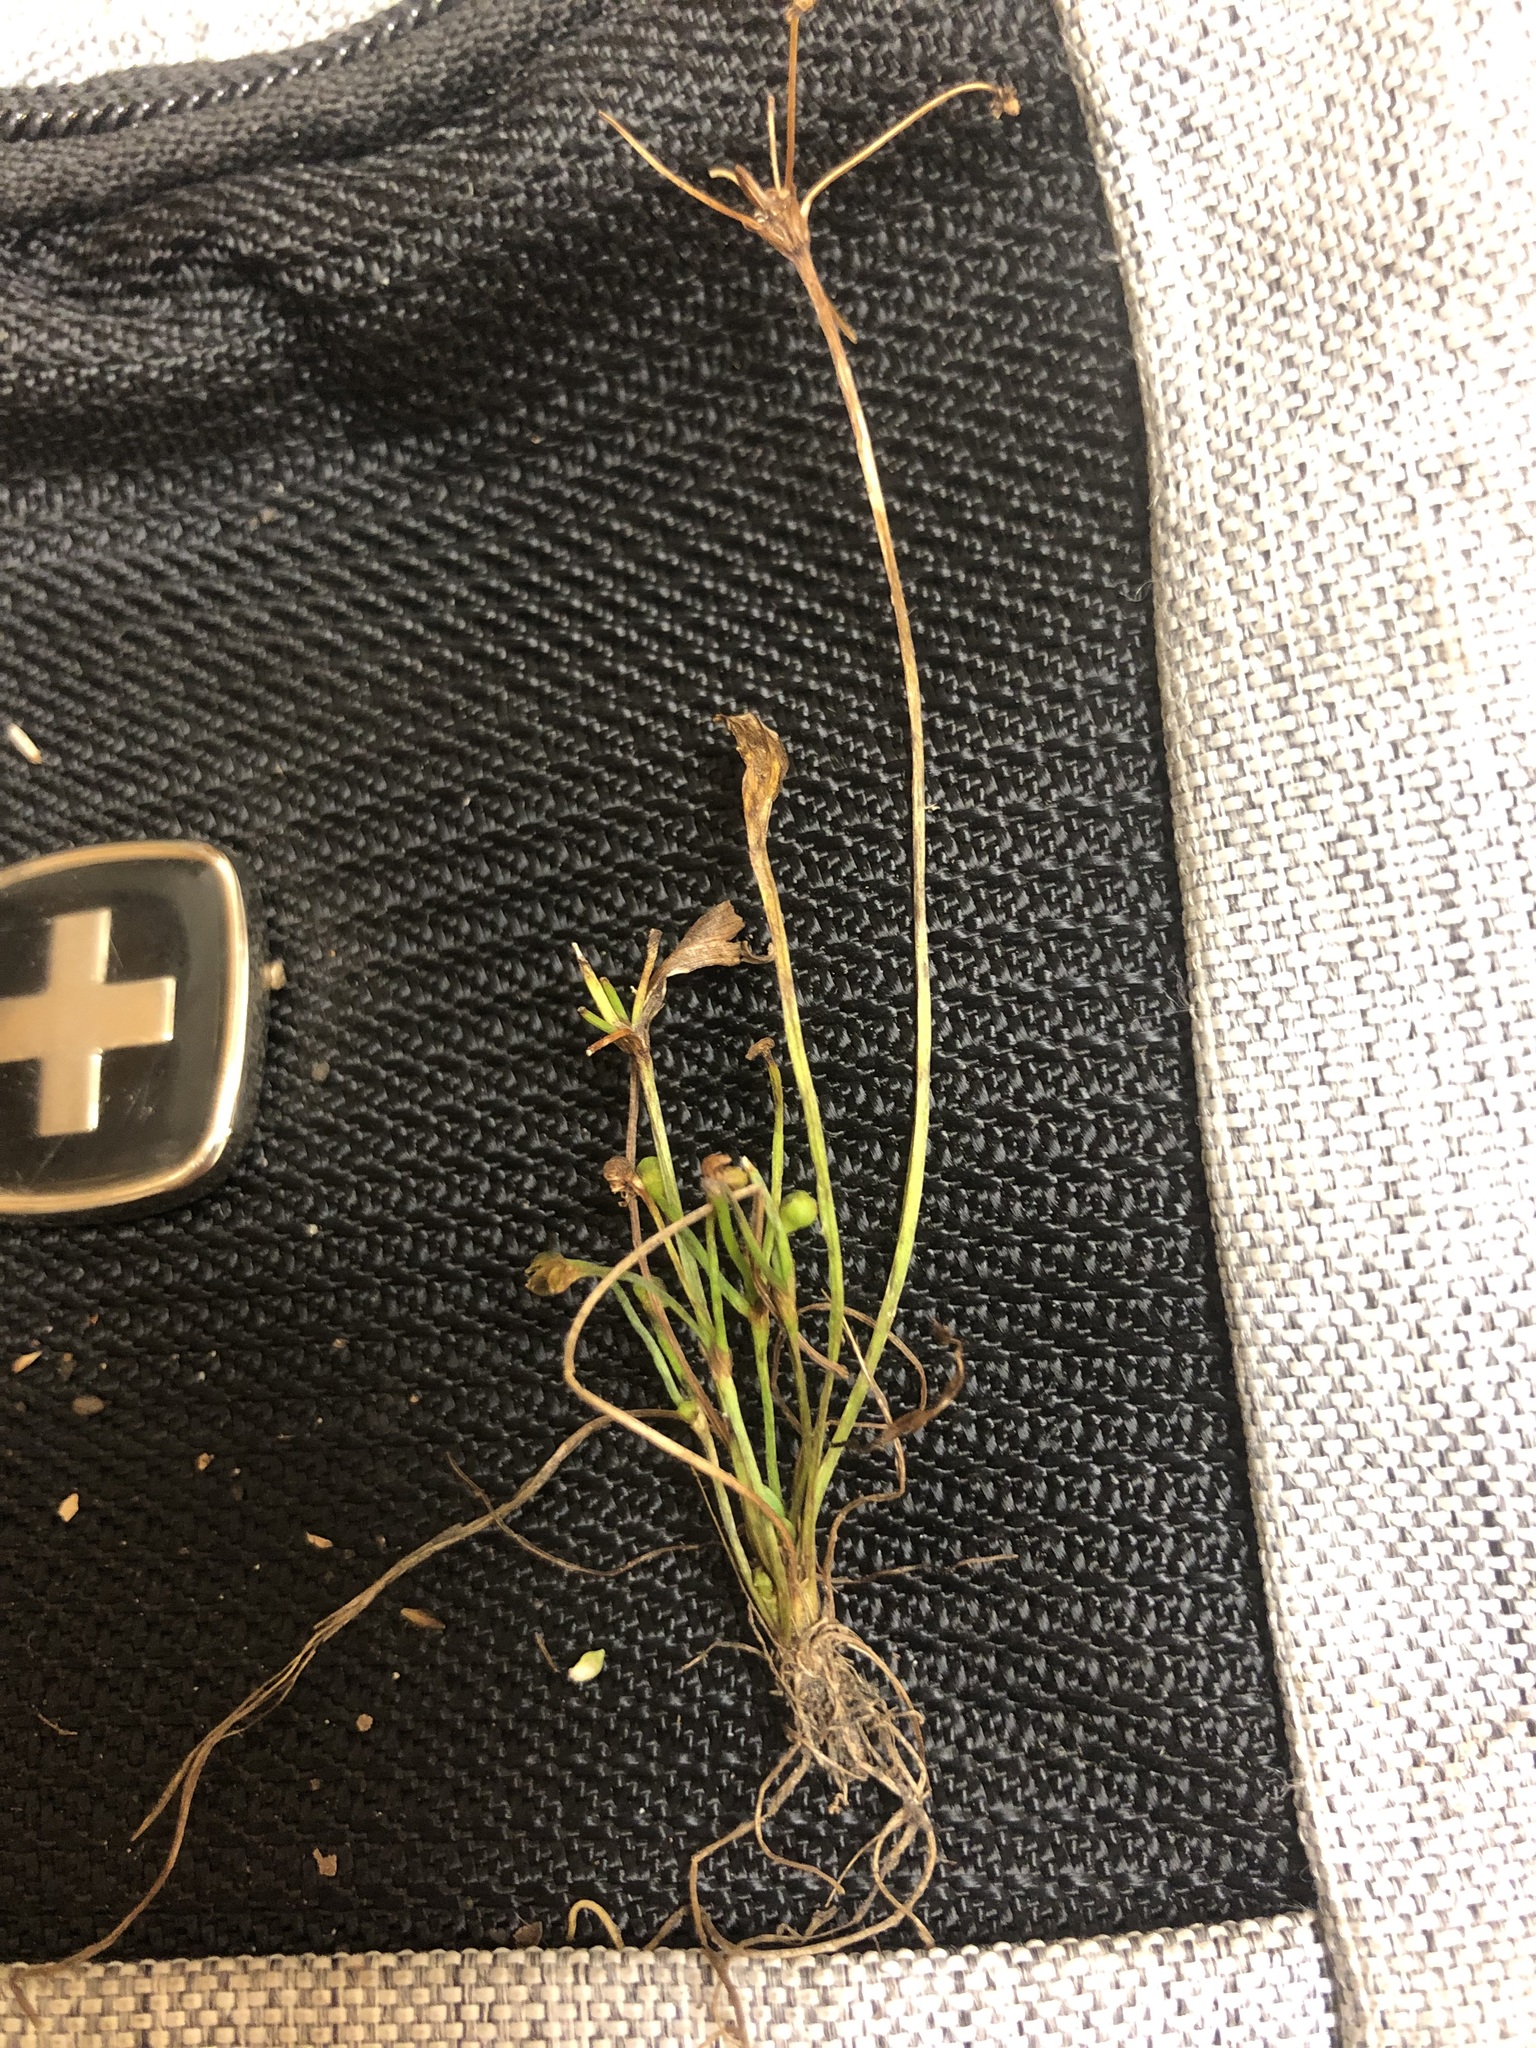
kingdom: Plantae
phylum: Tracheophyta
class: Liliopsida
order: Alismatales
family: Alismataceae
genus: Helanthium
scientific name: Helanthium tenellum
